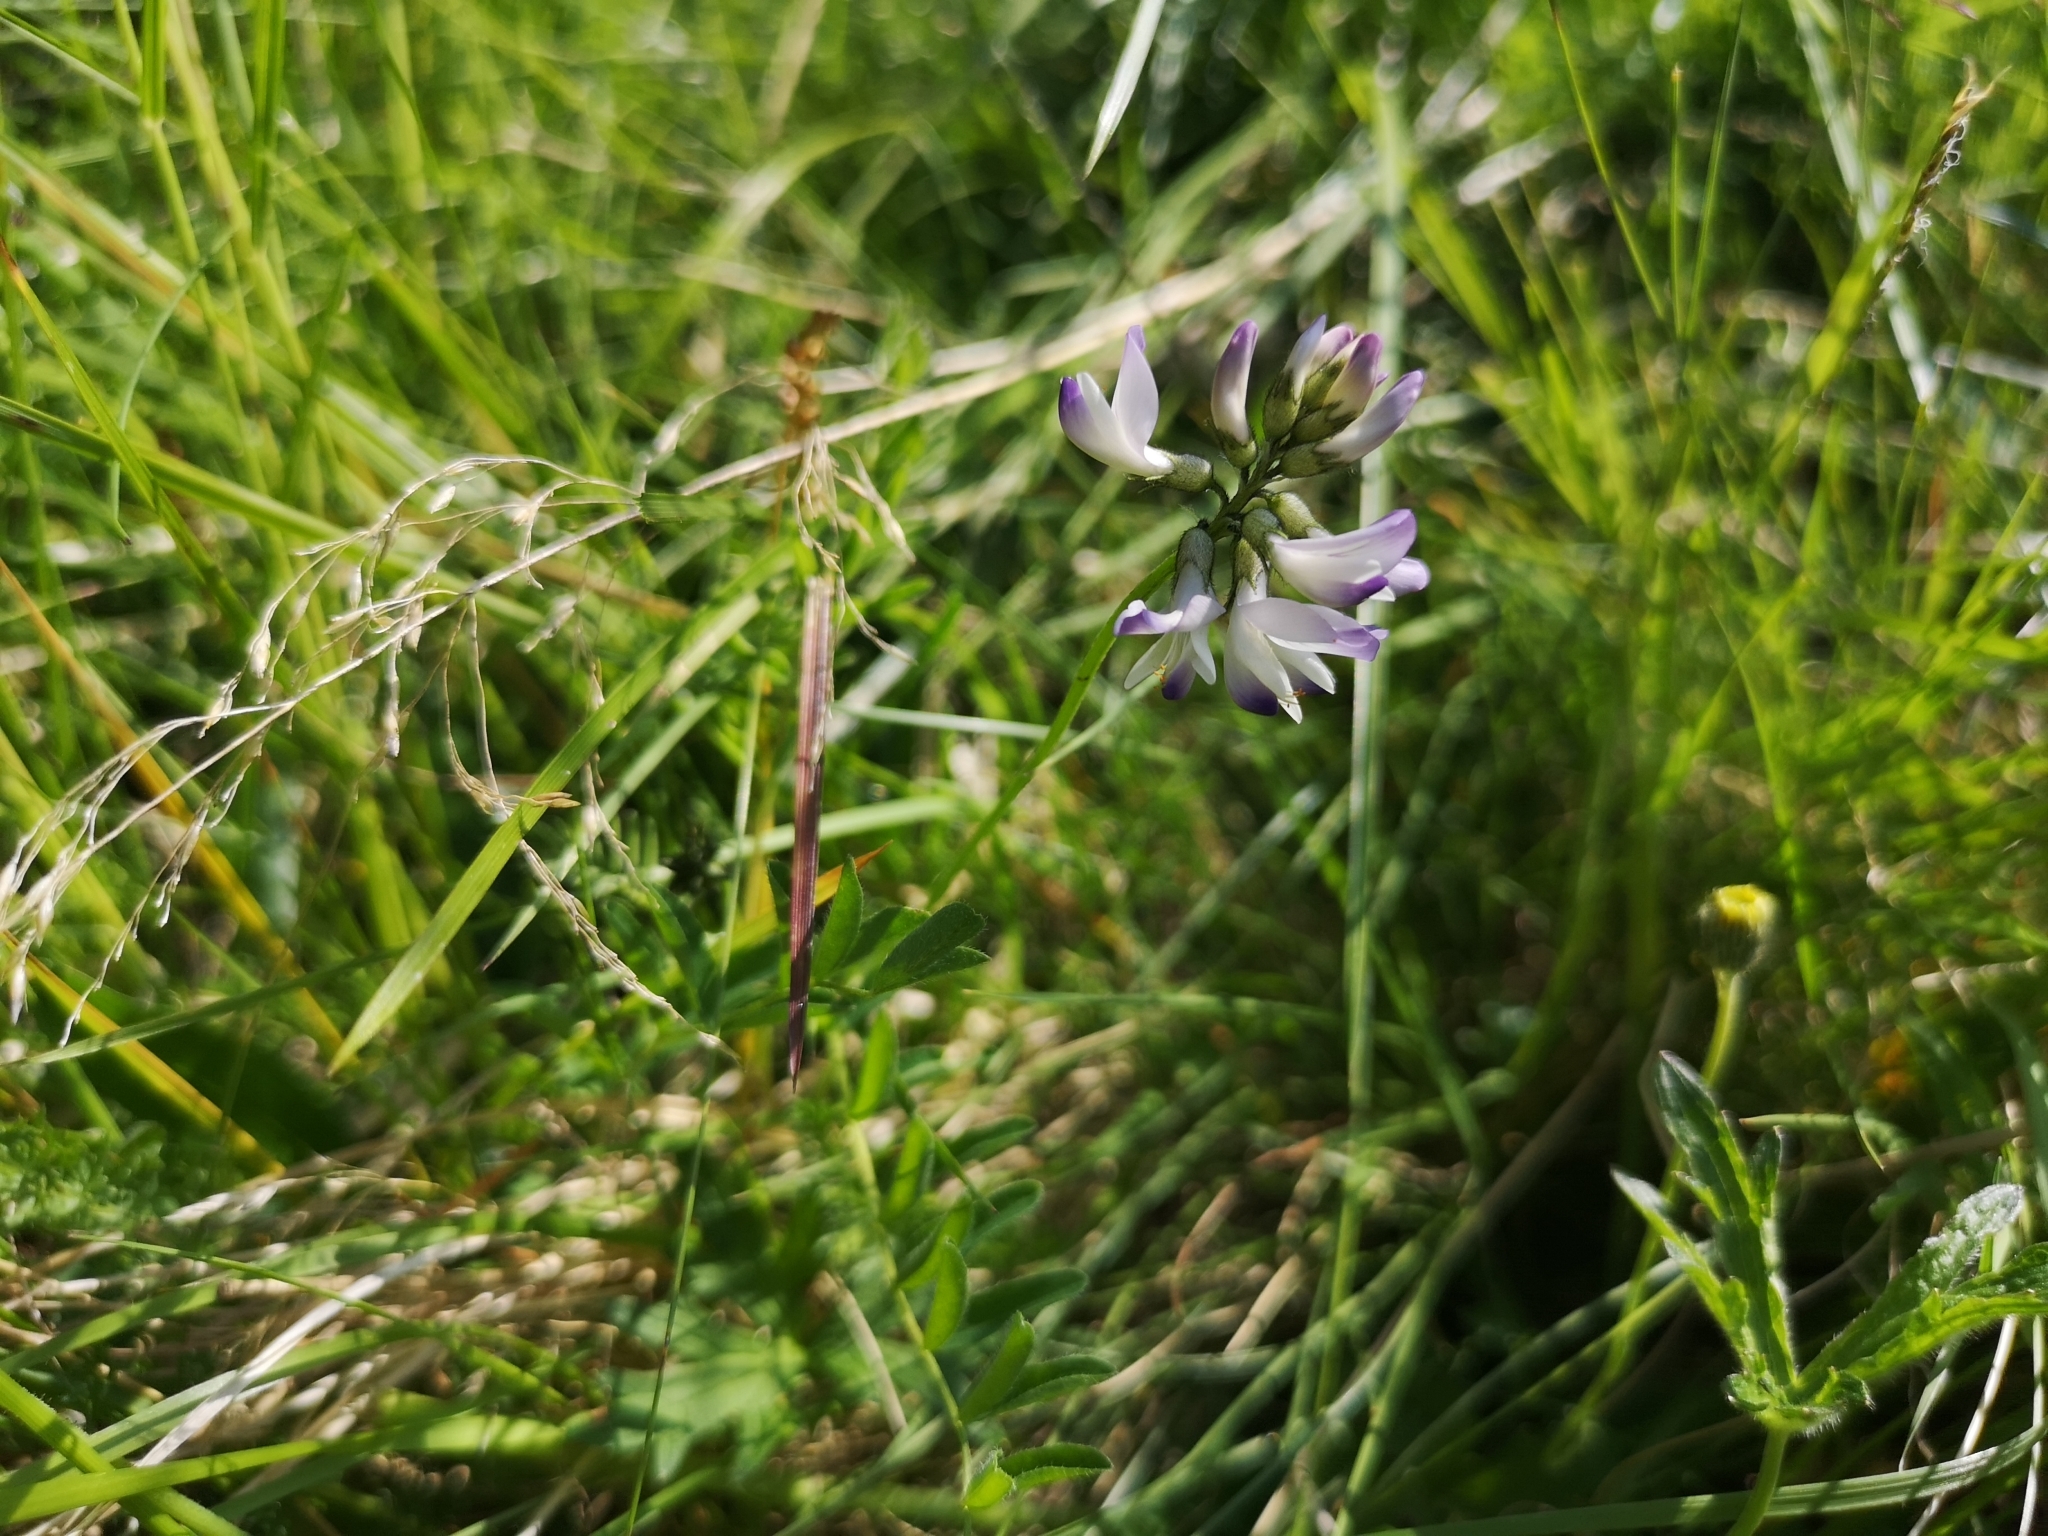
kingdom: Plantae
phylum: Tracheophyta
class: Magnoliopsida
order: Fabales
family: Fabaceae
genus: Astragalus
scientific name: Astragalus alpinus
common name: Alpine milk-vetch
